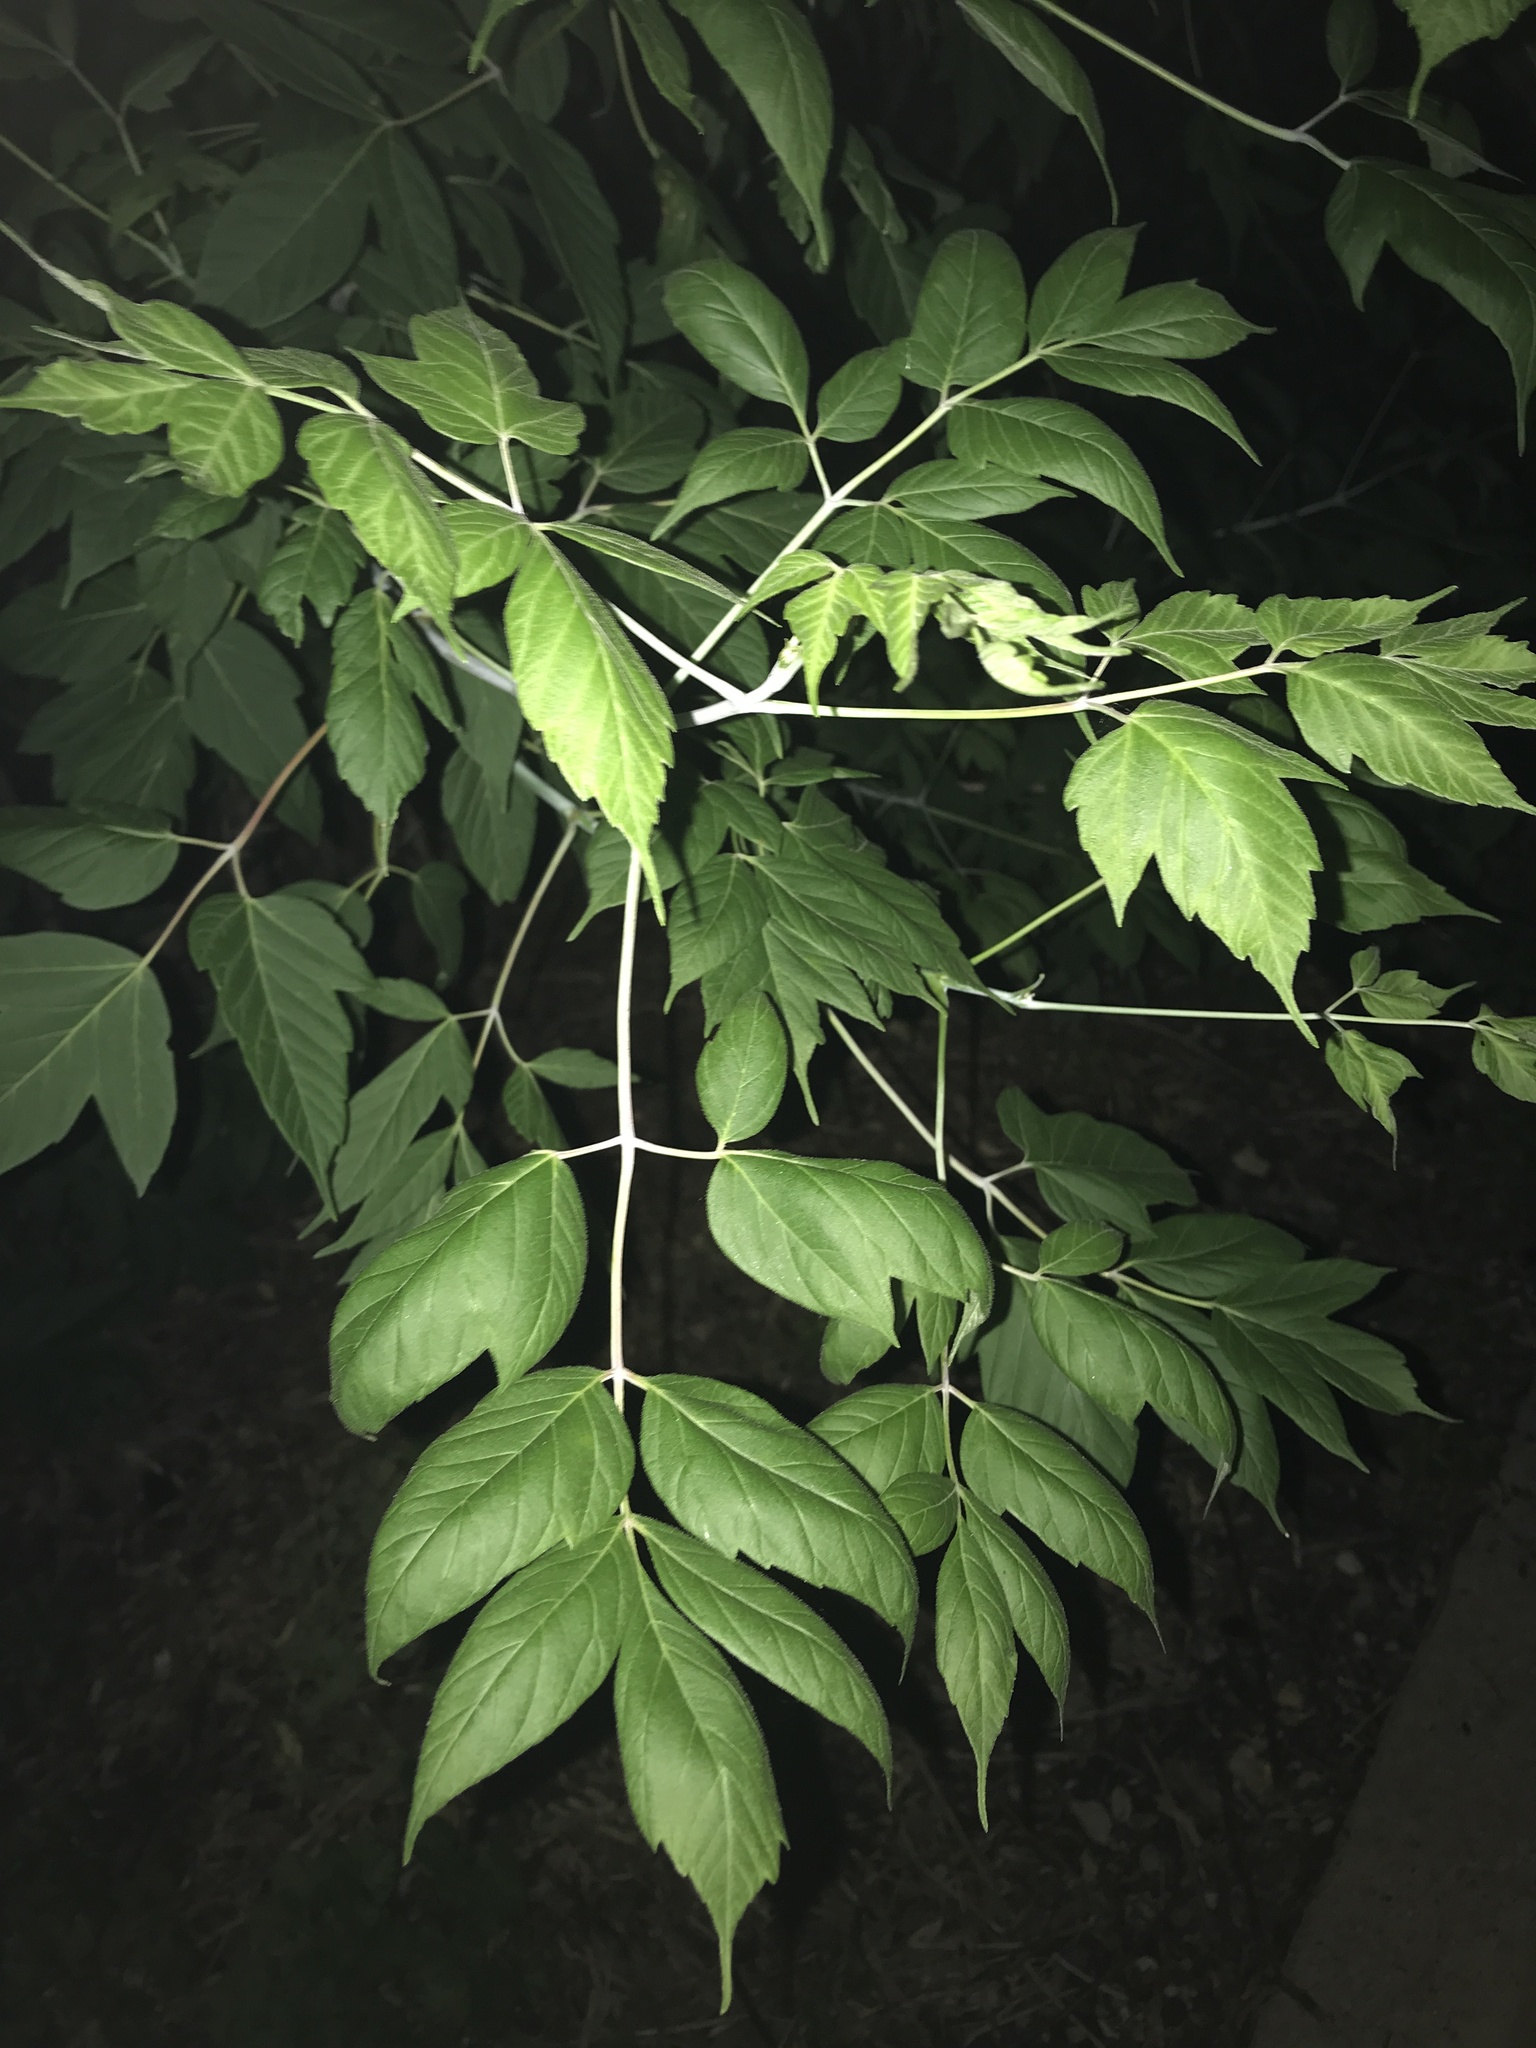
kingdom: Plantae
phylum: Tracheophyta
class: Magnoliopsida
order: Sapindales
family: Sapindaceae
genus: Acer
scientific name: Acer negundo
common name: Ashleaf maple
